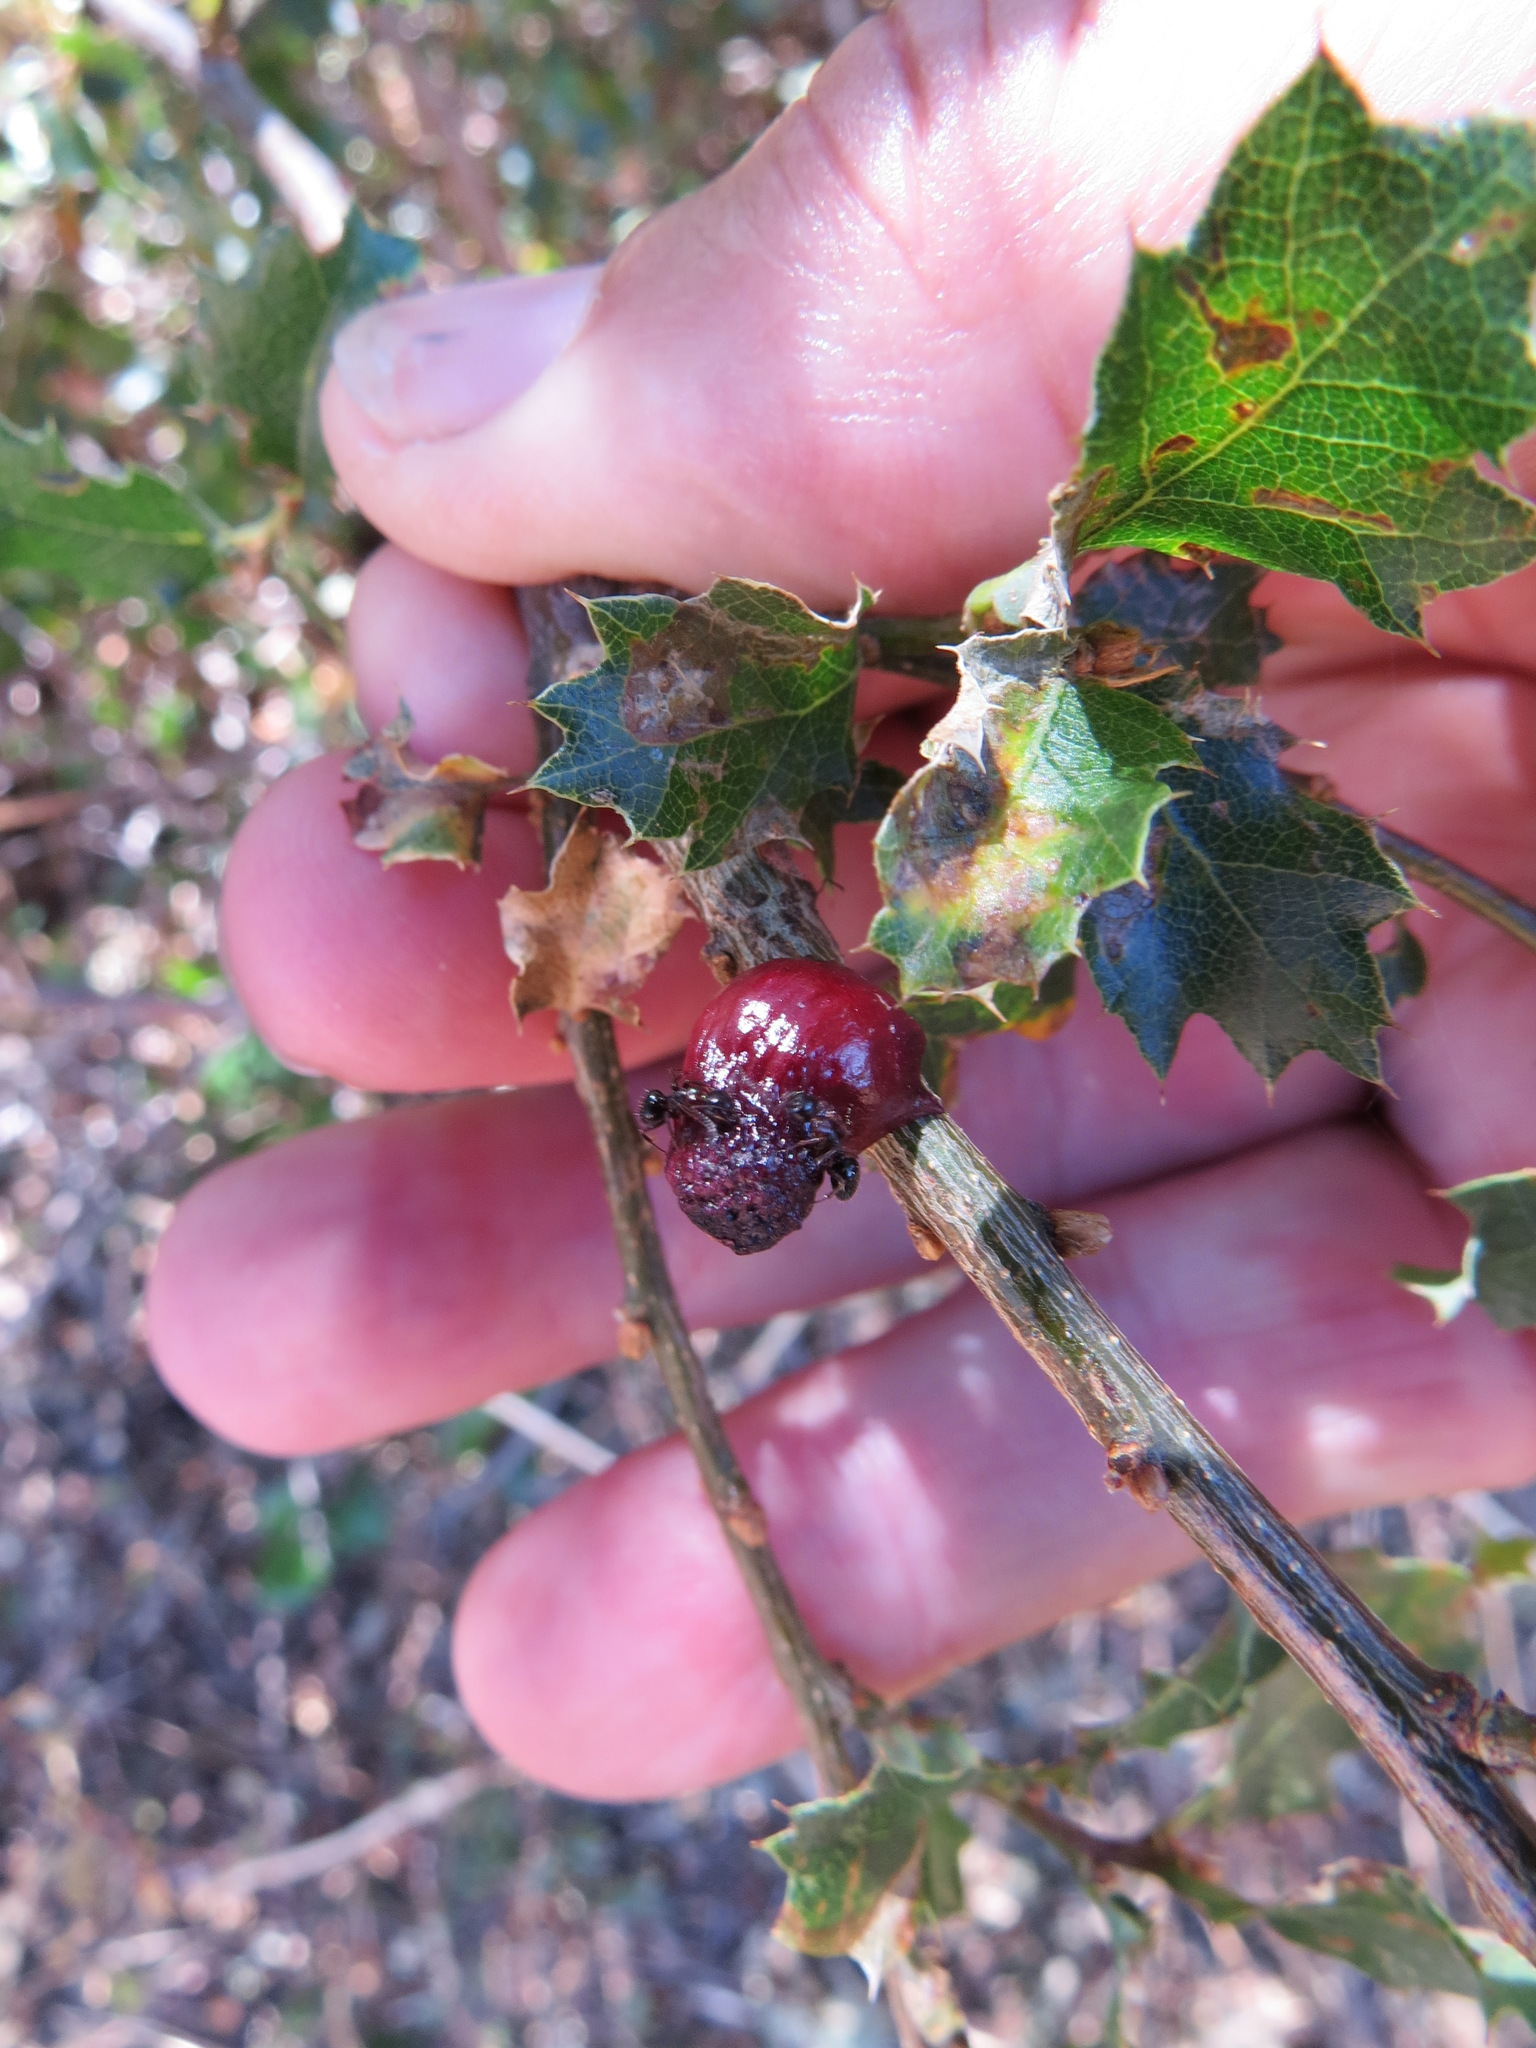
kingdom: Animalia
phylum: Arthropoda
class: Insecta
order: Hymenoptera
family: Cynipidae
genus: Disholcaspis
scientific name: Disholcaspis prehensa
